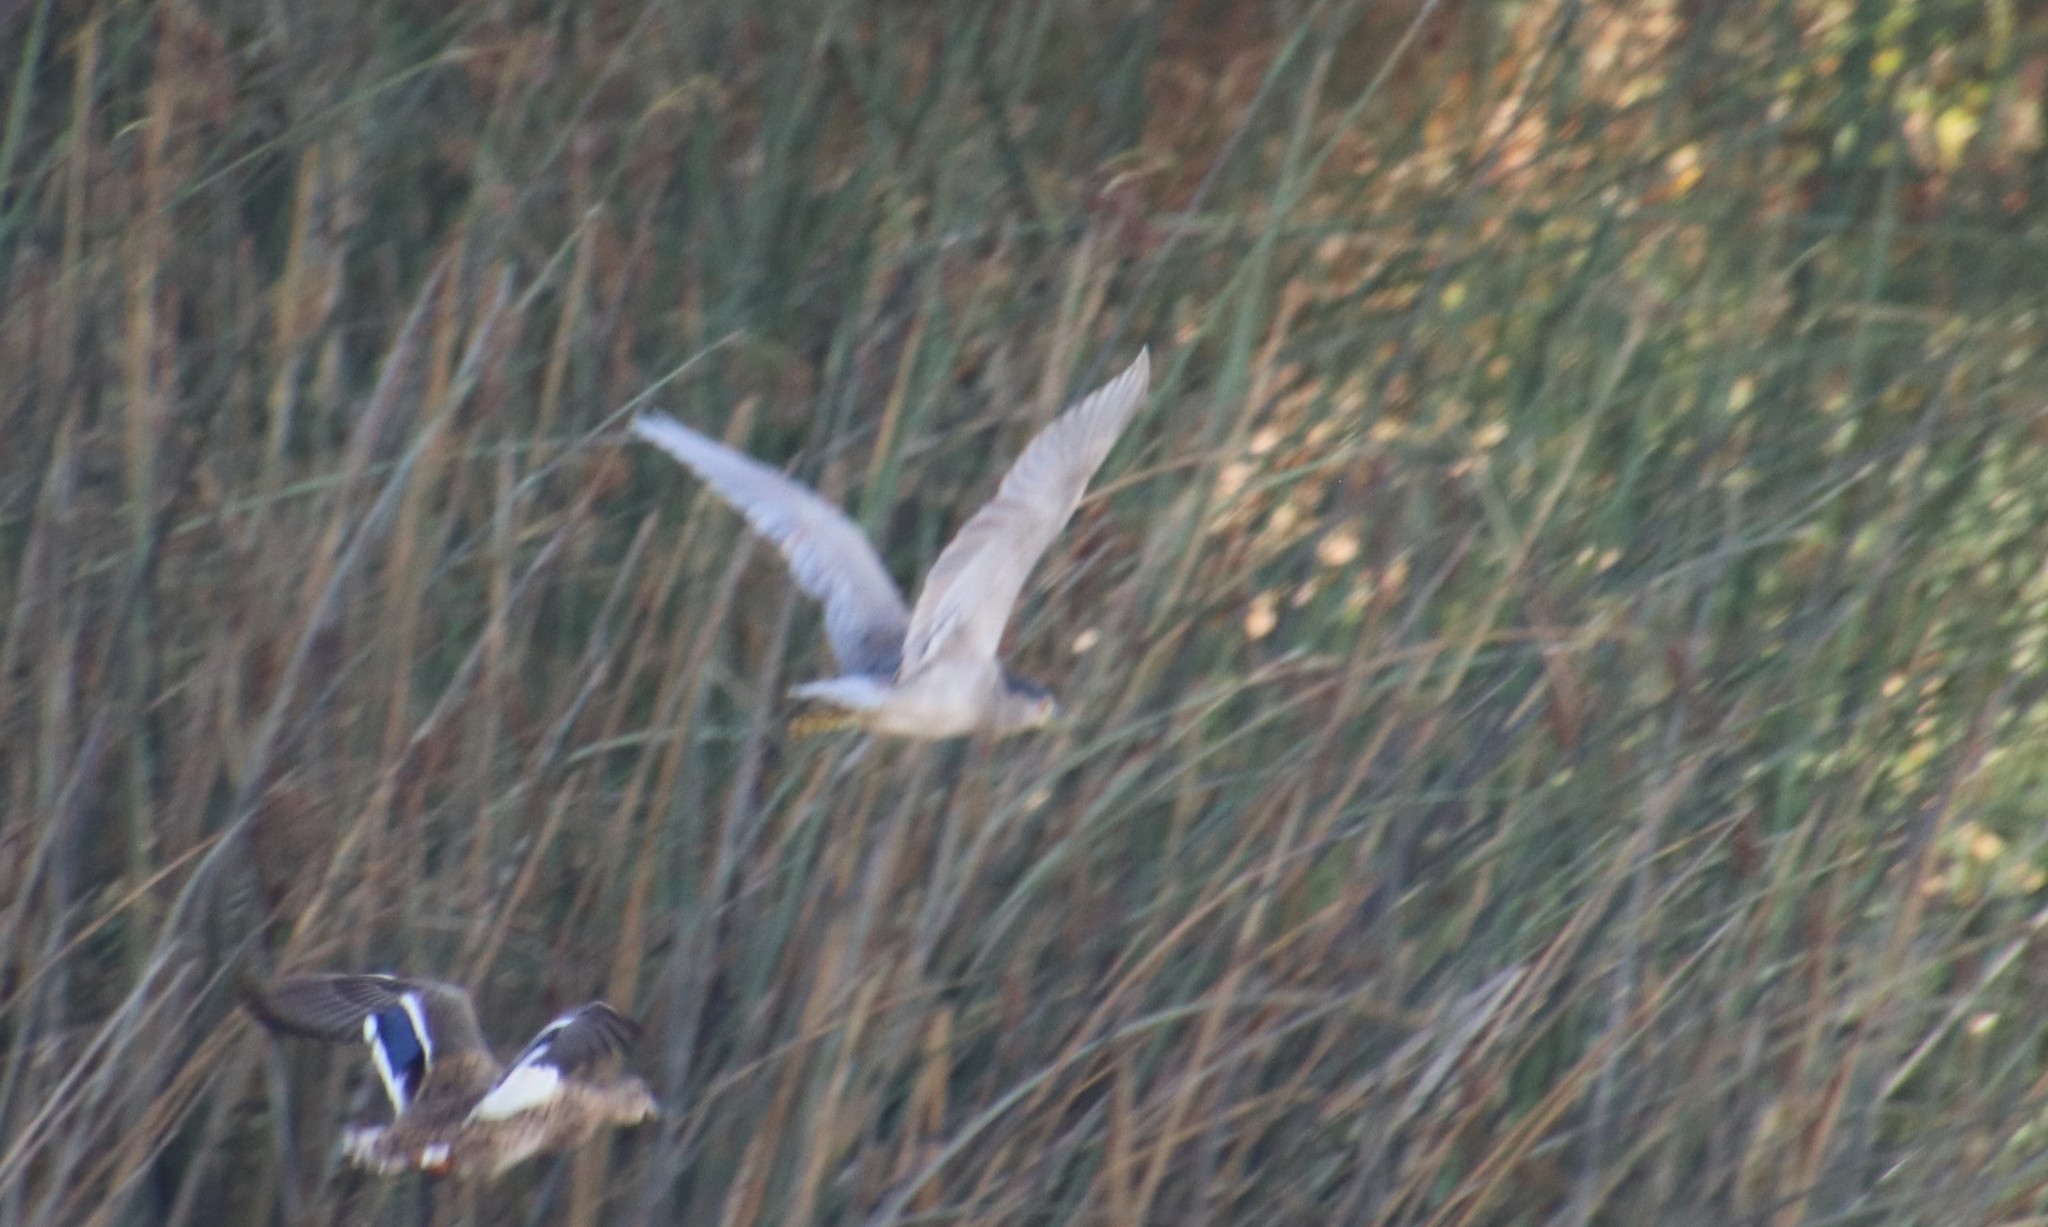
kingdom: Animalia
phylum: Chordata
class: Aves
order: Pelecaniformes
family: Ardeidae
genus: Nycticorax
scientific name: Nycticorax nycticorax
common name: Black-crowned night heron
